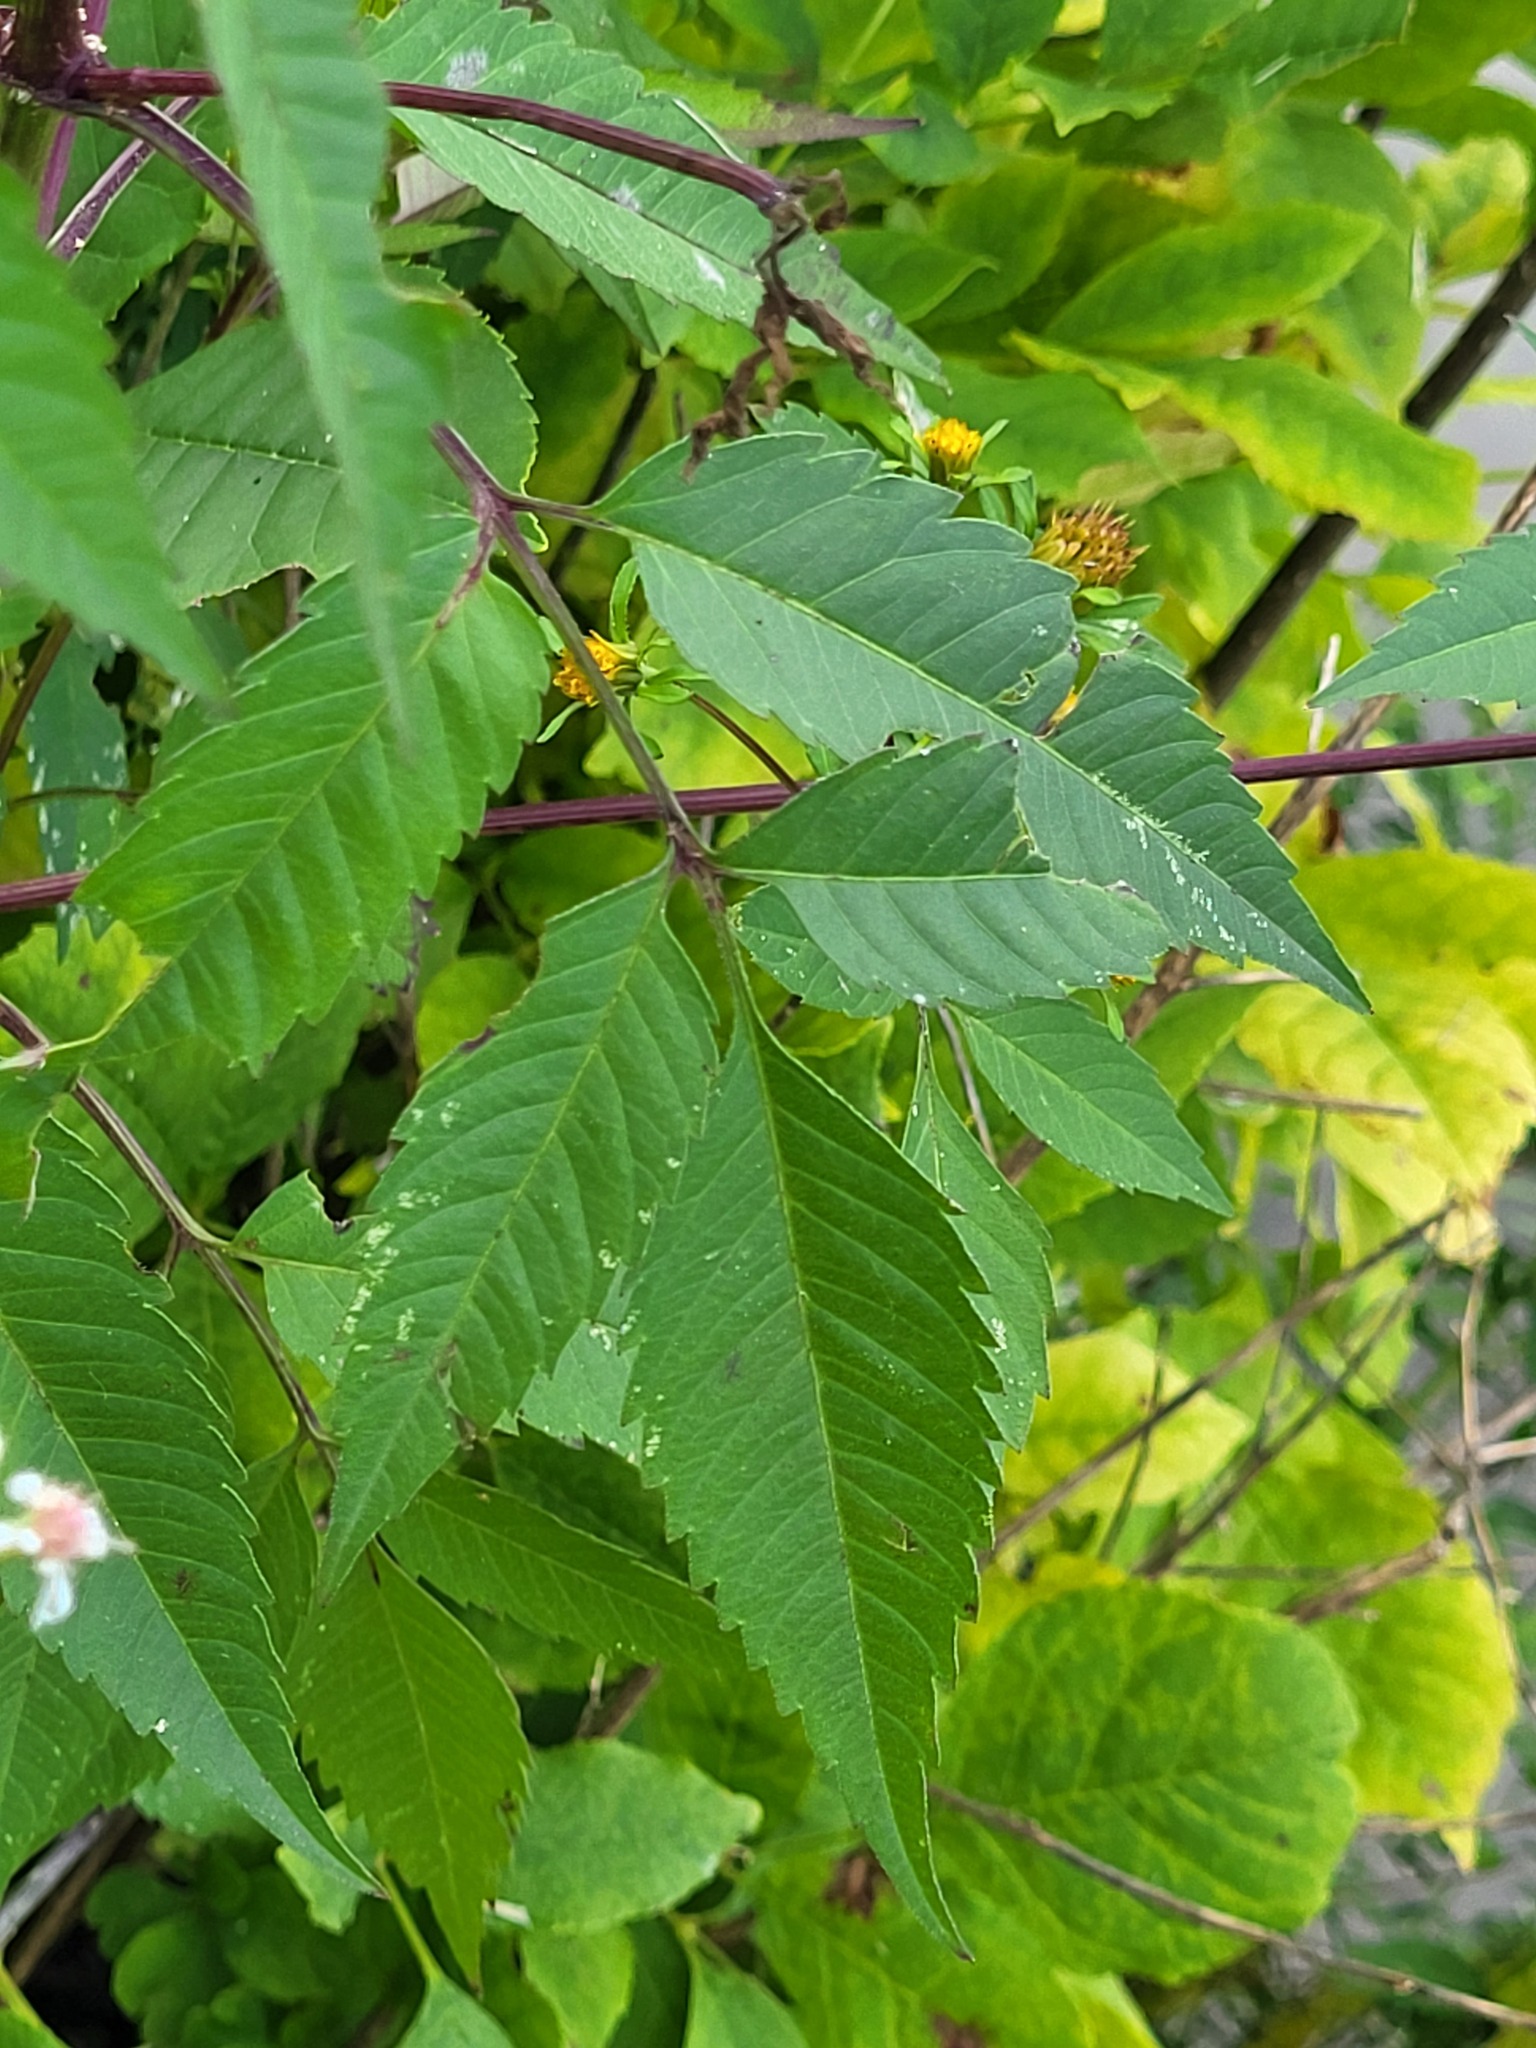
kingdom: Plantae
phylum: Tracheophyta
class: Magnoliopsida
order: Asterales
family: Asteraceae
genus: Bidens
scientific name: Bidens frondosa
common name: Beggarticks
